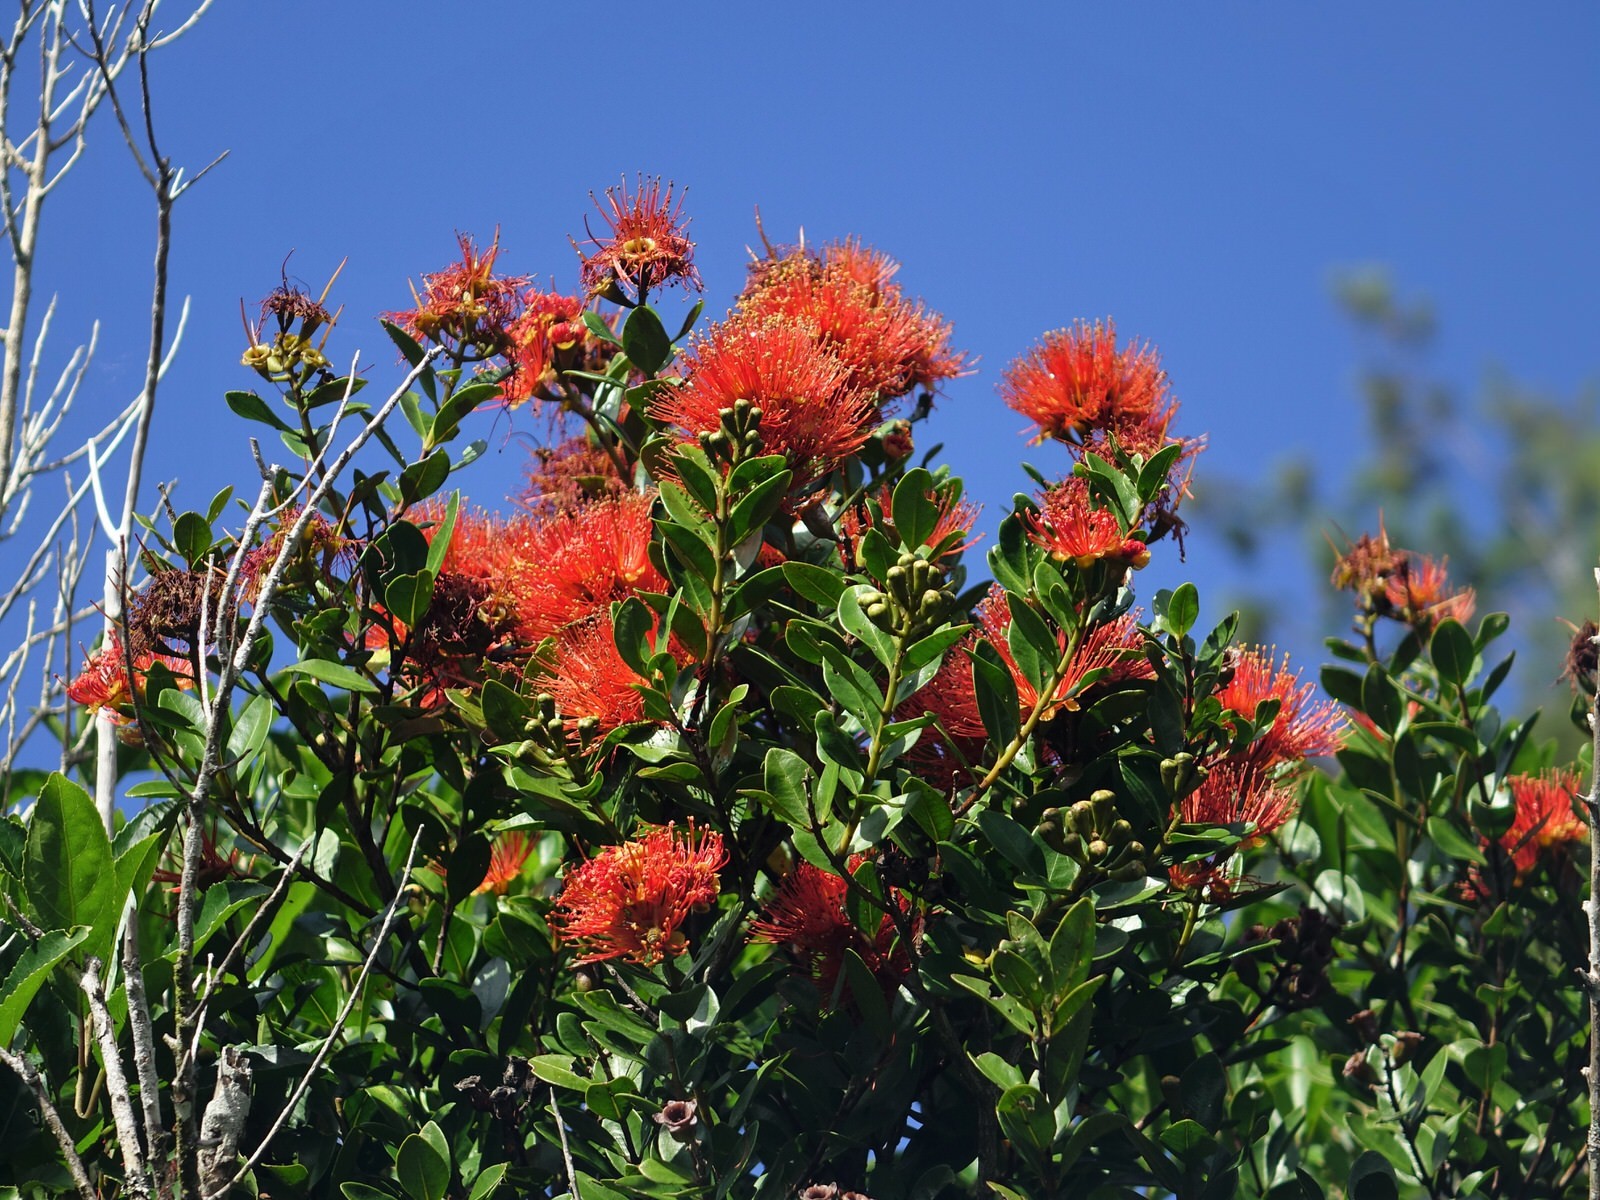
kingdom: Plantae
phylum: Tracheophyta
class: Magnoliopsida
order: Myrtales
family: Myrtaceae
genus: Metrosideros
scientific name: Metrosideros fulgens
